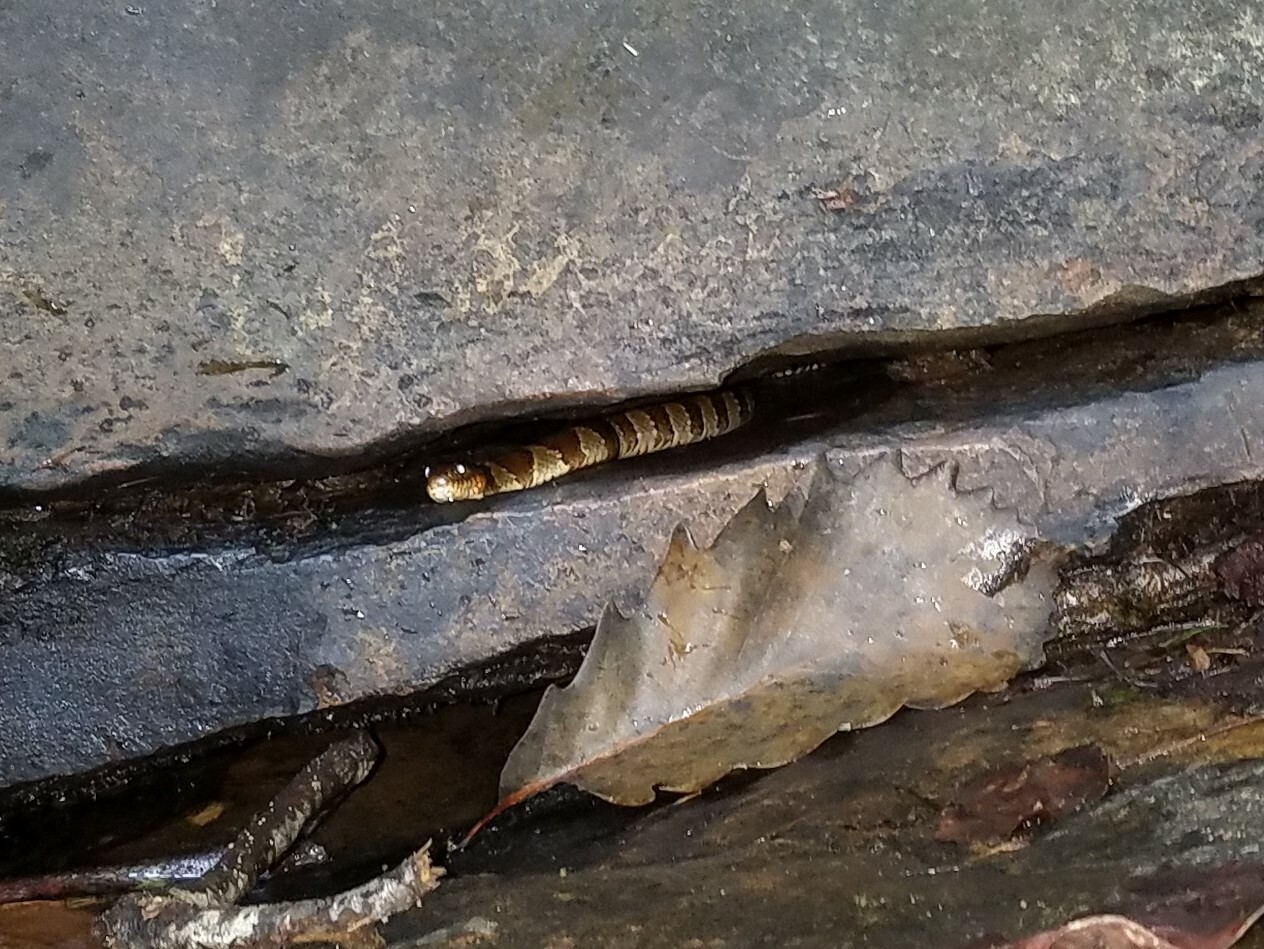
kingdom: Animalia
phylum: Chordata
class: Squamata
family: Colubridae
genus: Nerodia
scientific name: Nerodia sipedon
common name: Northern water snake
